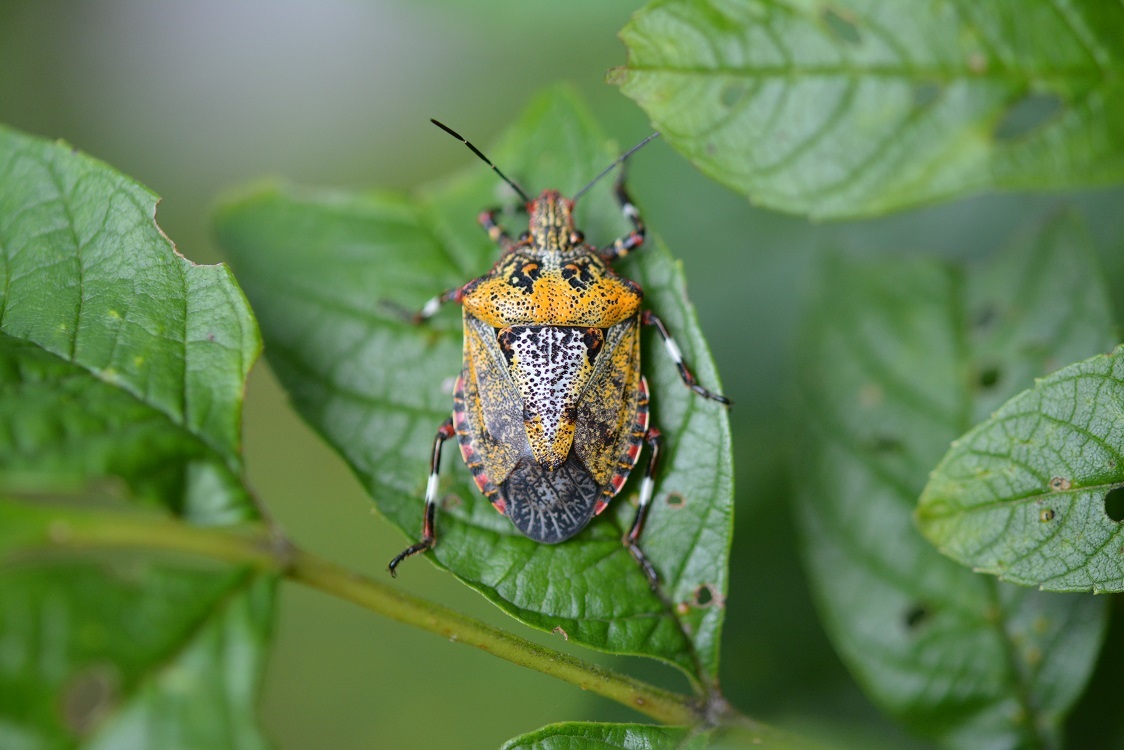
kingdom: Animalia
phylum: Arthropoda
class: Insecta
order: Hemiptera
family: Pentatomidae
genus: Brochymena
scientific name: Brochymena
